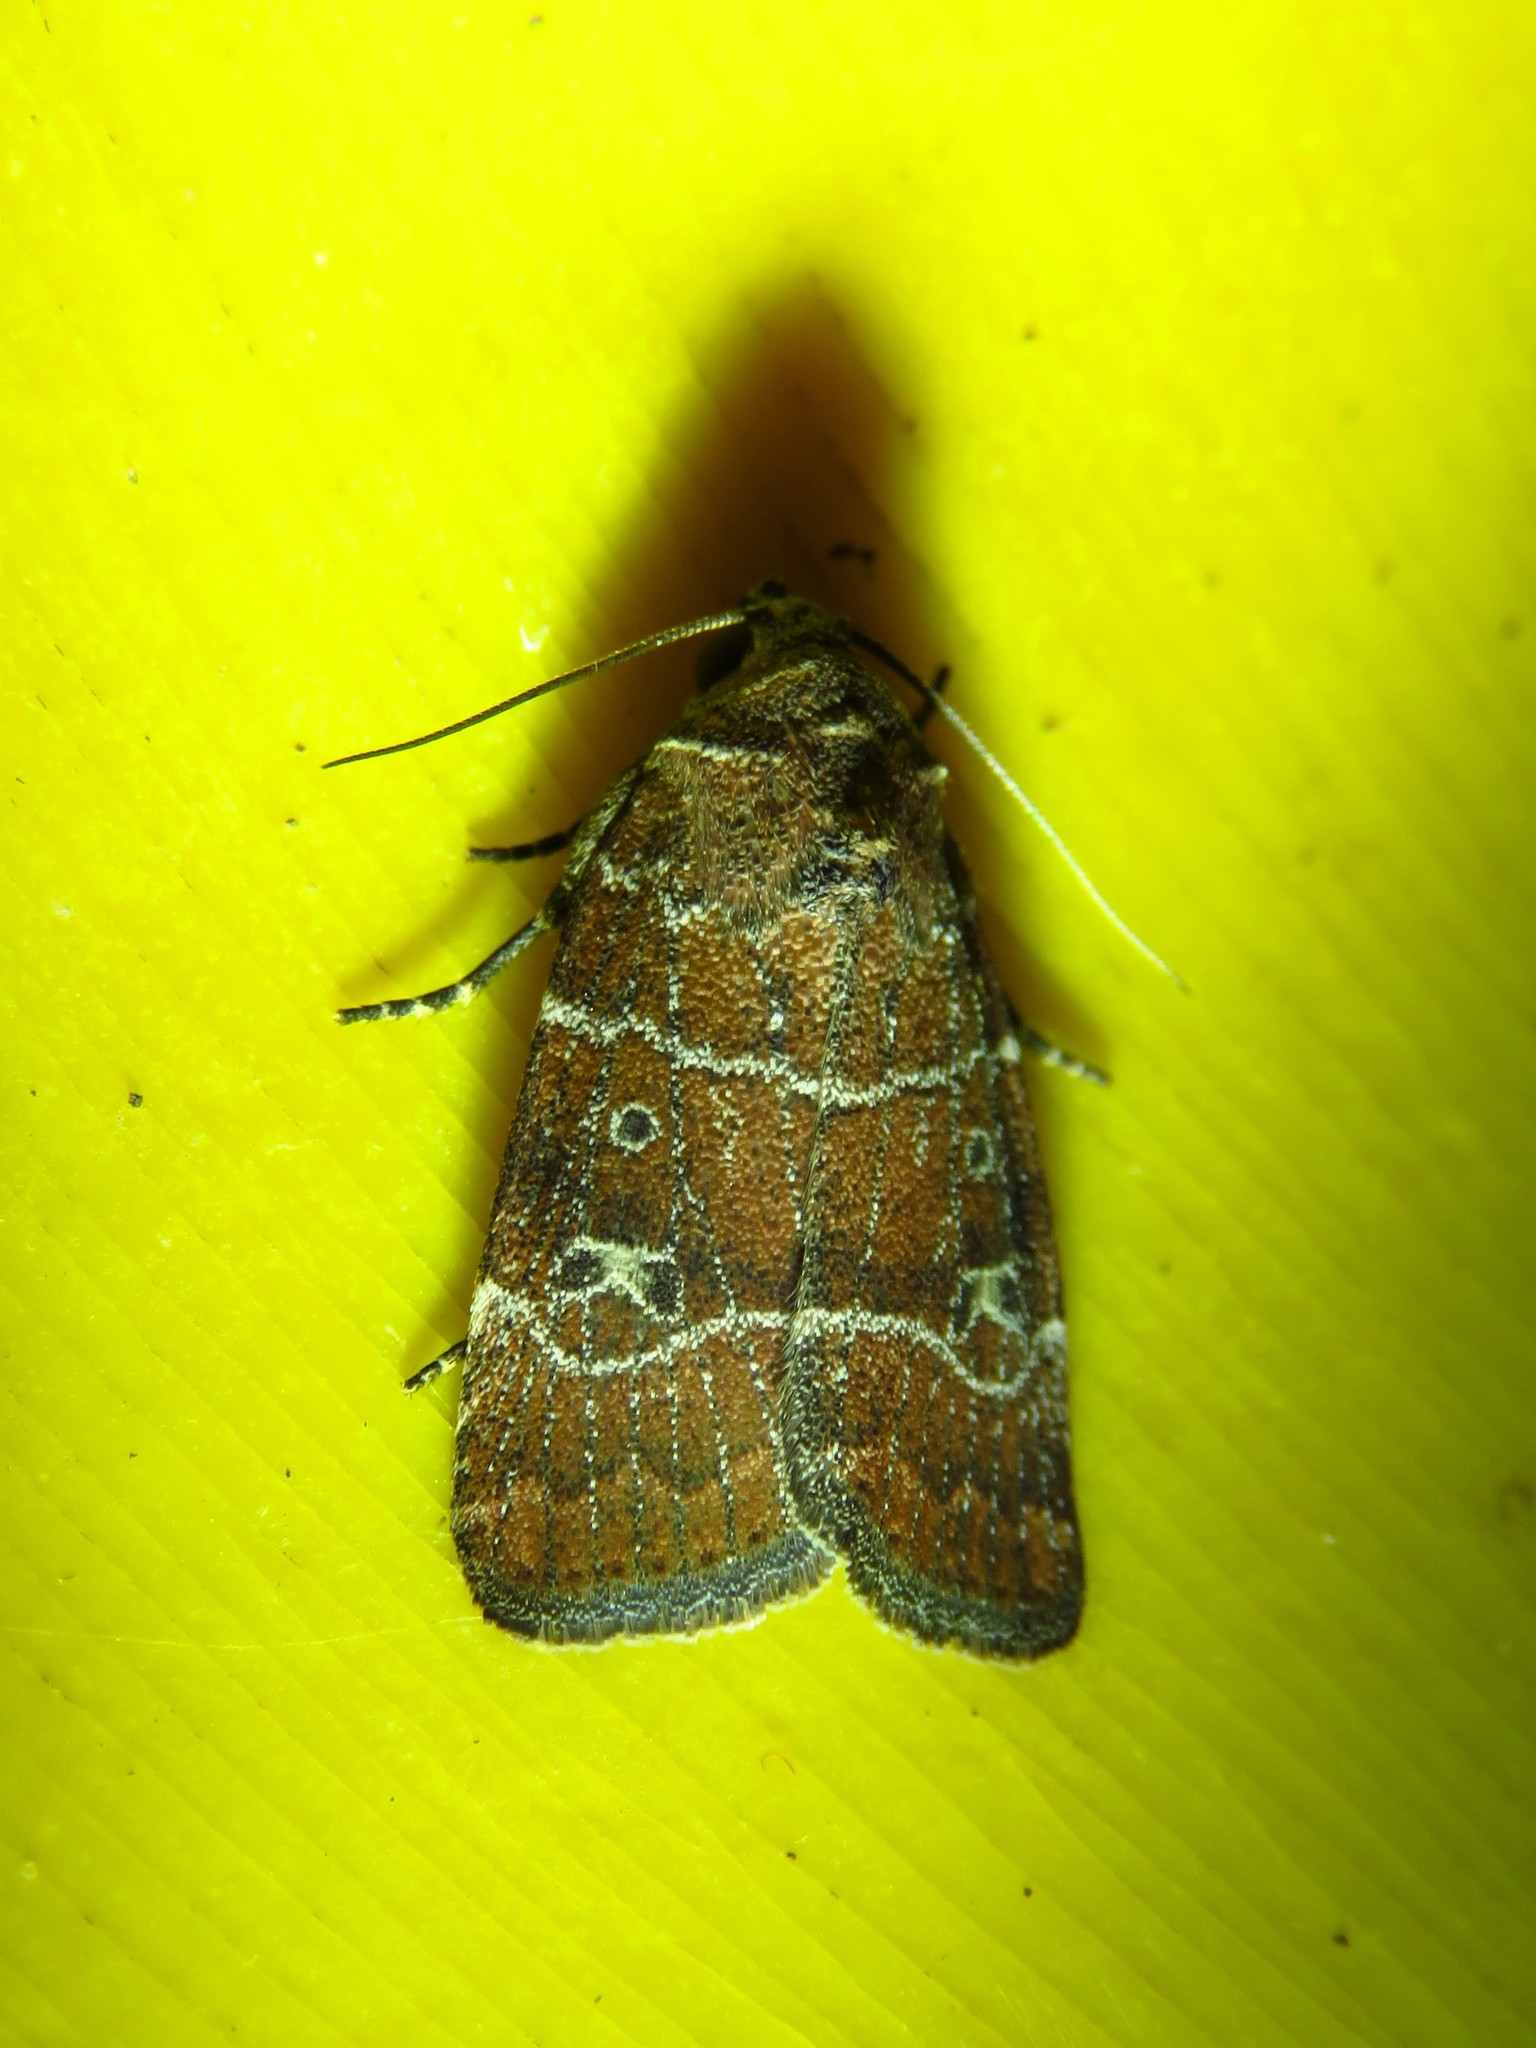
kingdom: Animalia
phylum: Arthropoda
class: Insecta
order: Lepidoptera
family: Noctuidae
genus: Elaphria
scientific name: Elaphria grata
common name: Grateful midget moth
